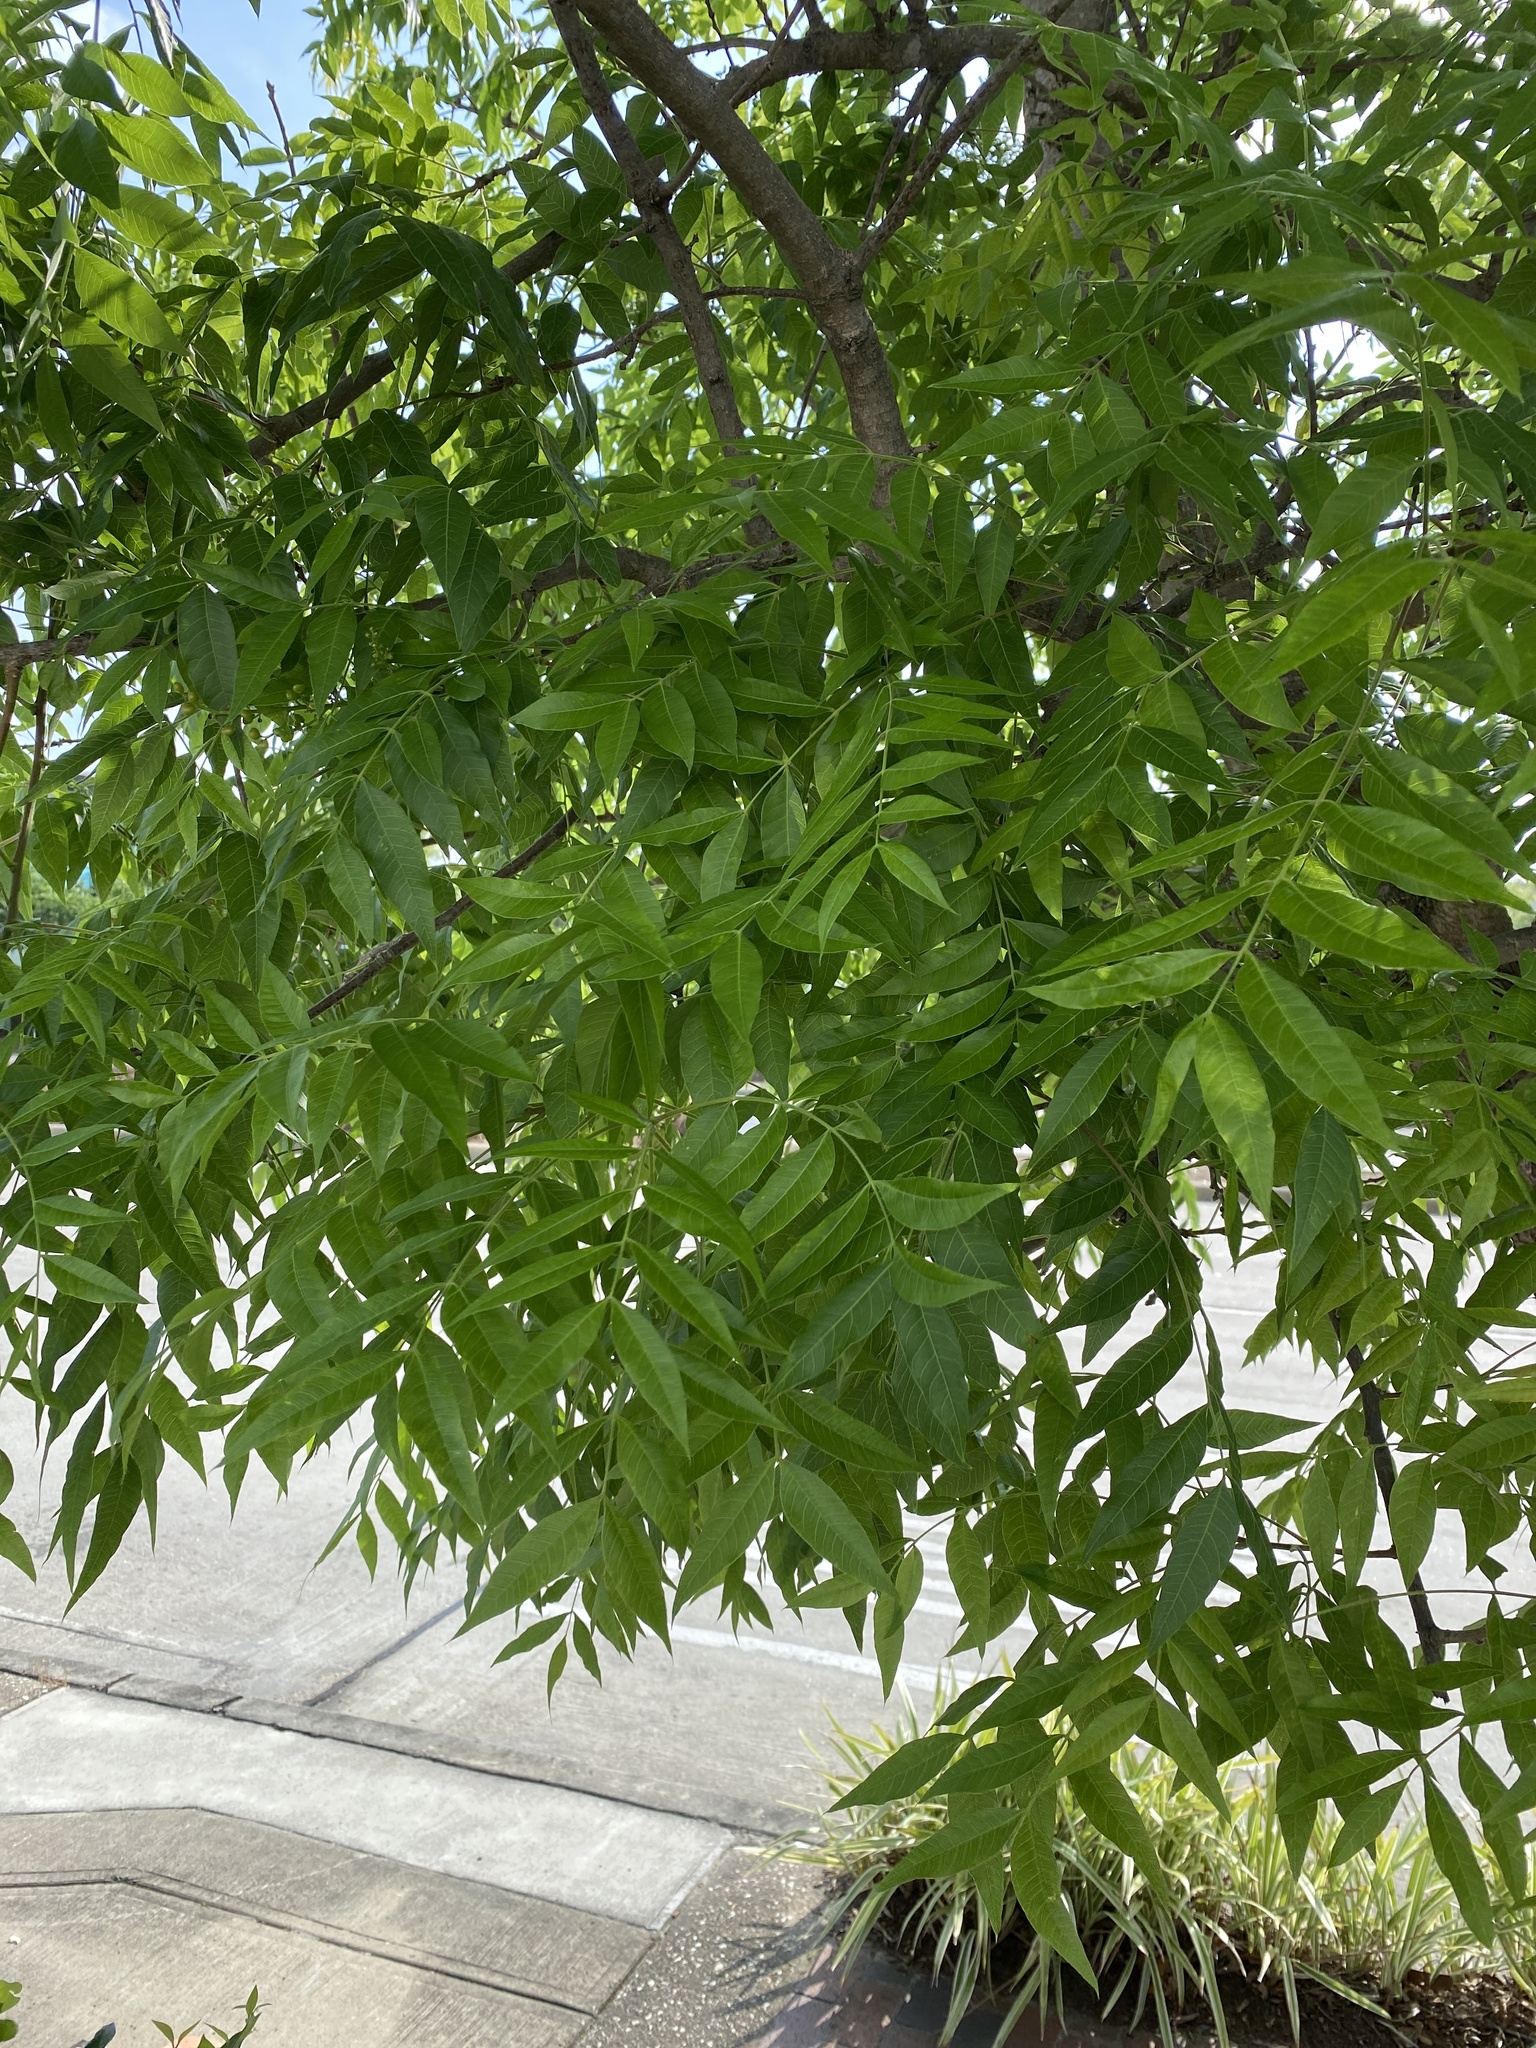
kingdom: Plantae
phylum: Tracheophyta
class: Magnoliopsida
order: Sapindales
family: Anacardiaceae
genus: Pistacia
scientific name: Pistacia chinensis
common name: Chinese pistache
